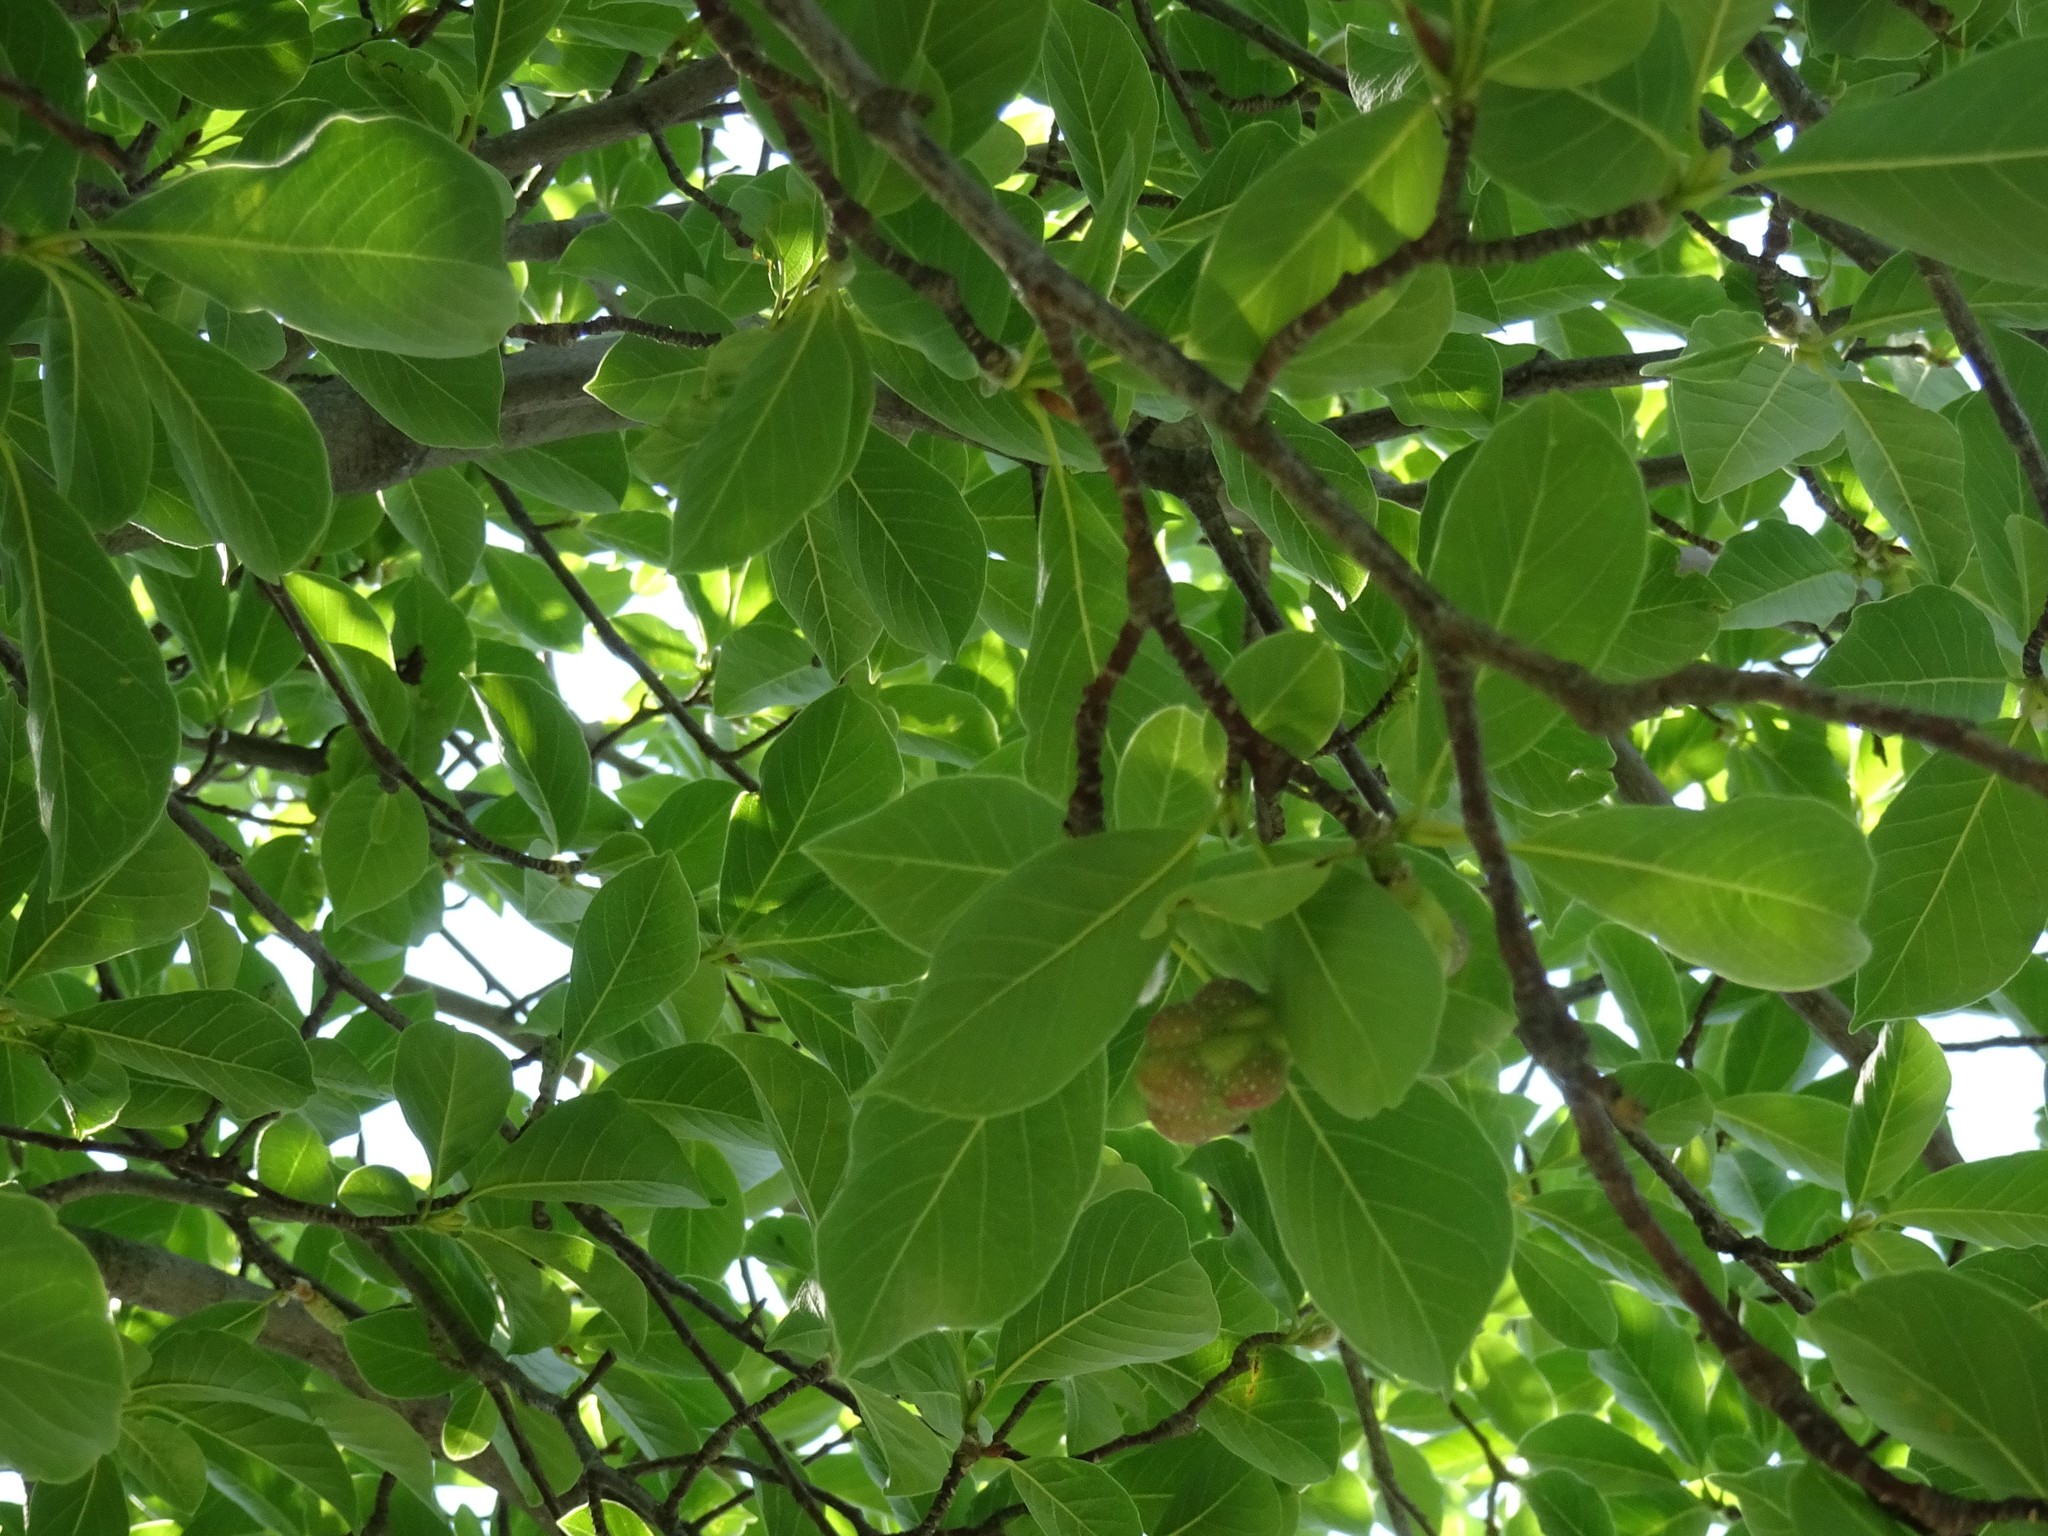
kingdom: Plantae
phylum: Tracheophyta
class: Magnoliopsida
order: Magnoliales
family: Magnoliaceae
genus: Magnolia
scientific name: Magnolia acuminata
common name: Cucumber magnolia
